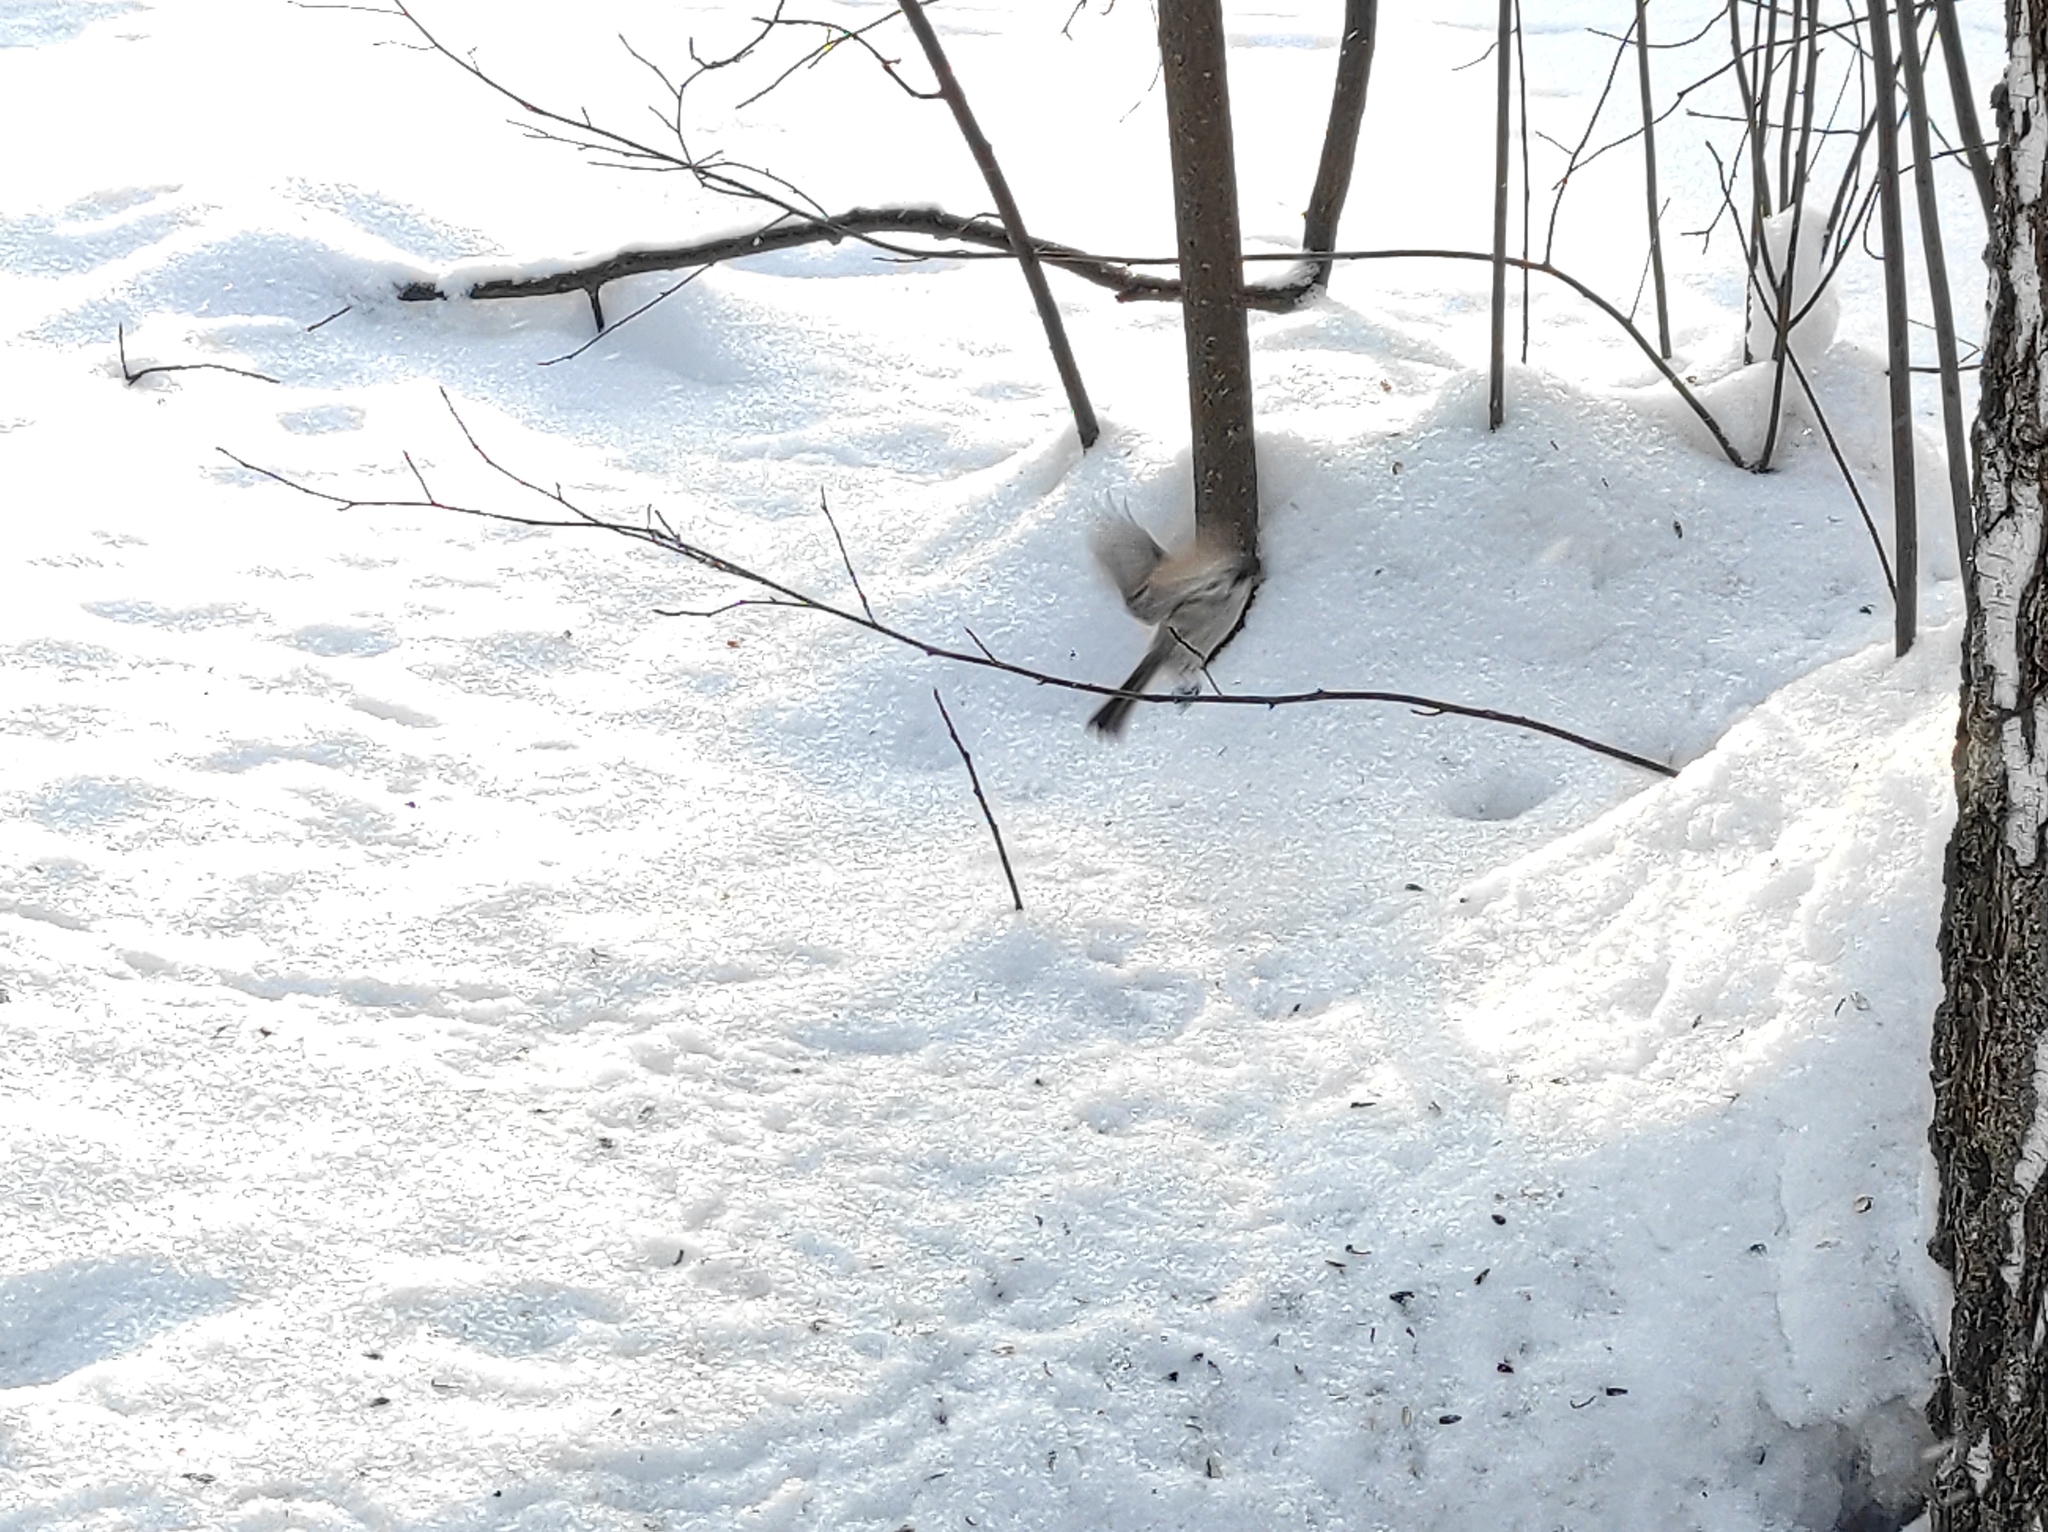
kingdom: Animalia
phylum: Chordata
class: Aves
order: Passeriformes
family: Fringillidae
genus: Spinus
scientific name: Spinus spinus
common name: Eurasian siskin
